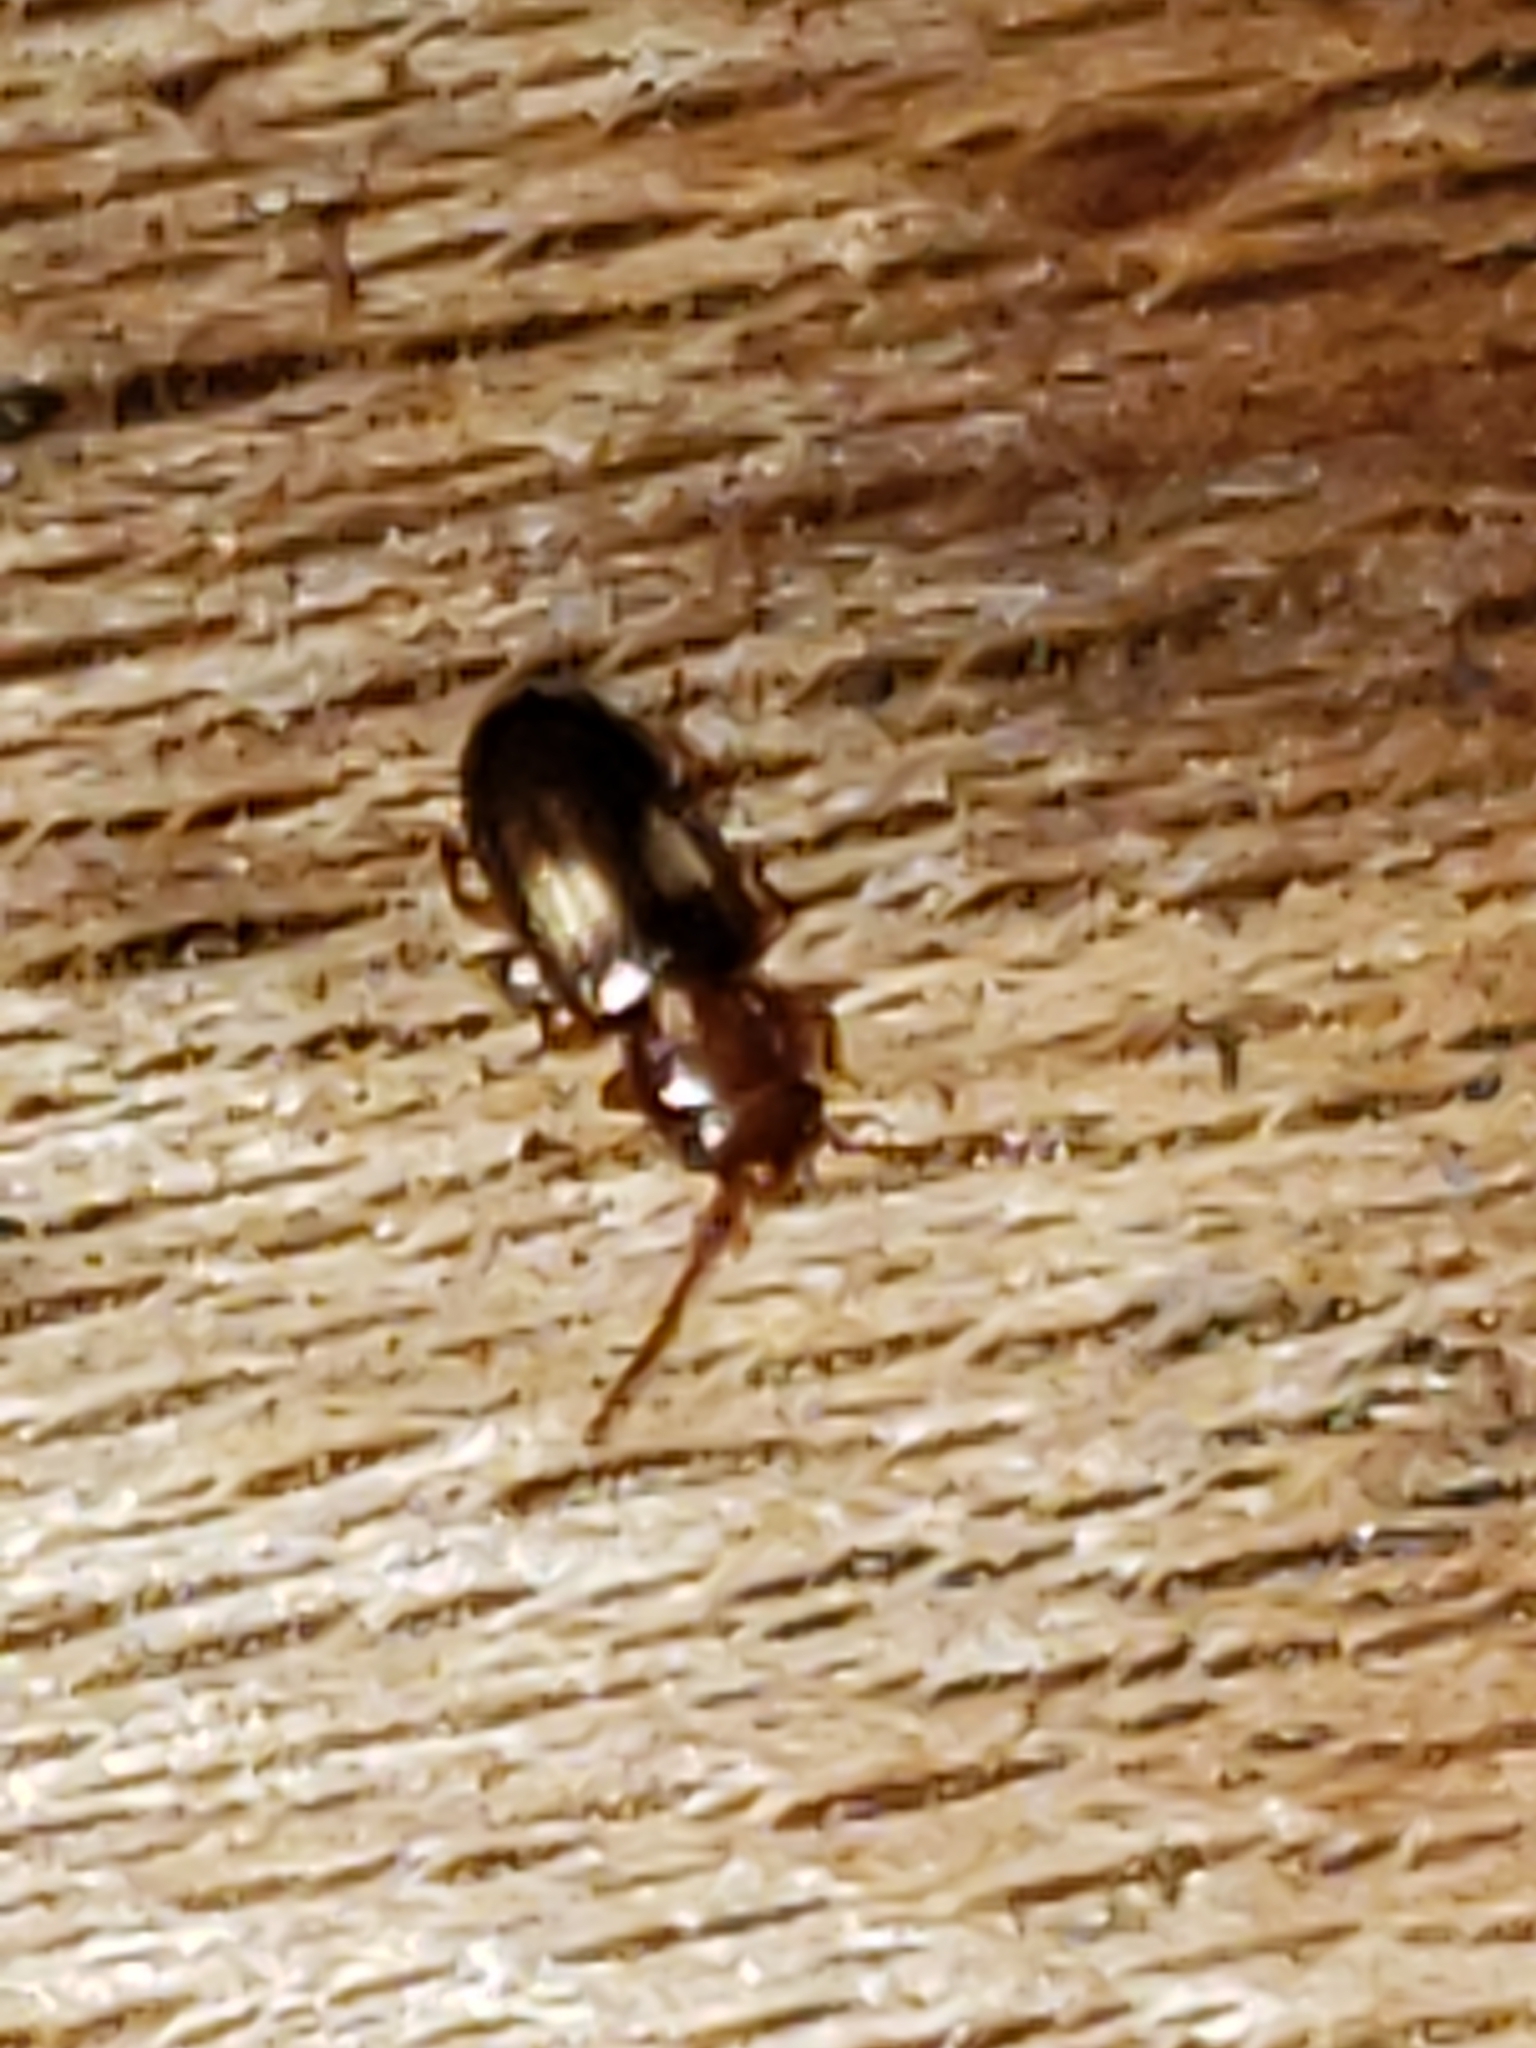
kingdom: Animalia
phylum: Arthropoda
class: Insecta
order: Coleoptera
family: Laemophloeidae
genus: Laemophloeus
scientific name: Laemophloeus fasciatus
